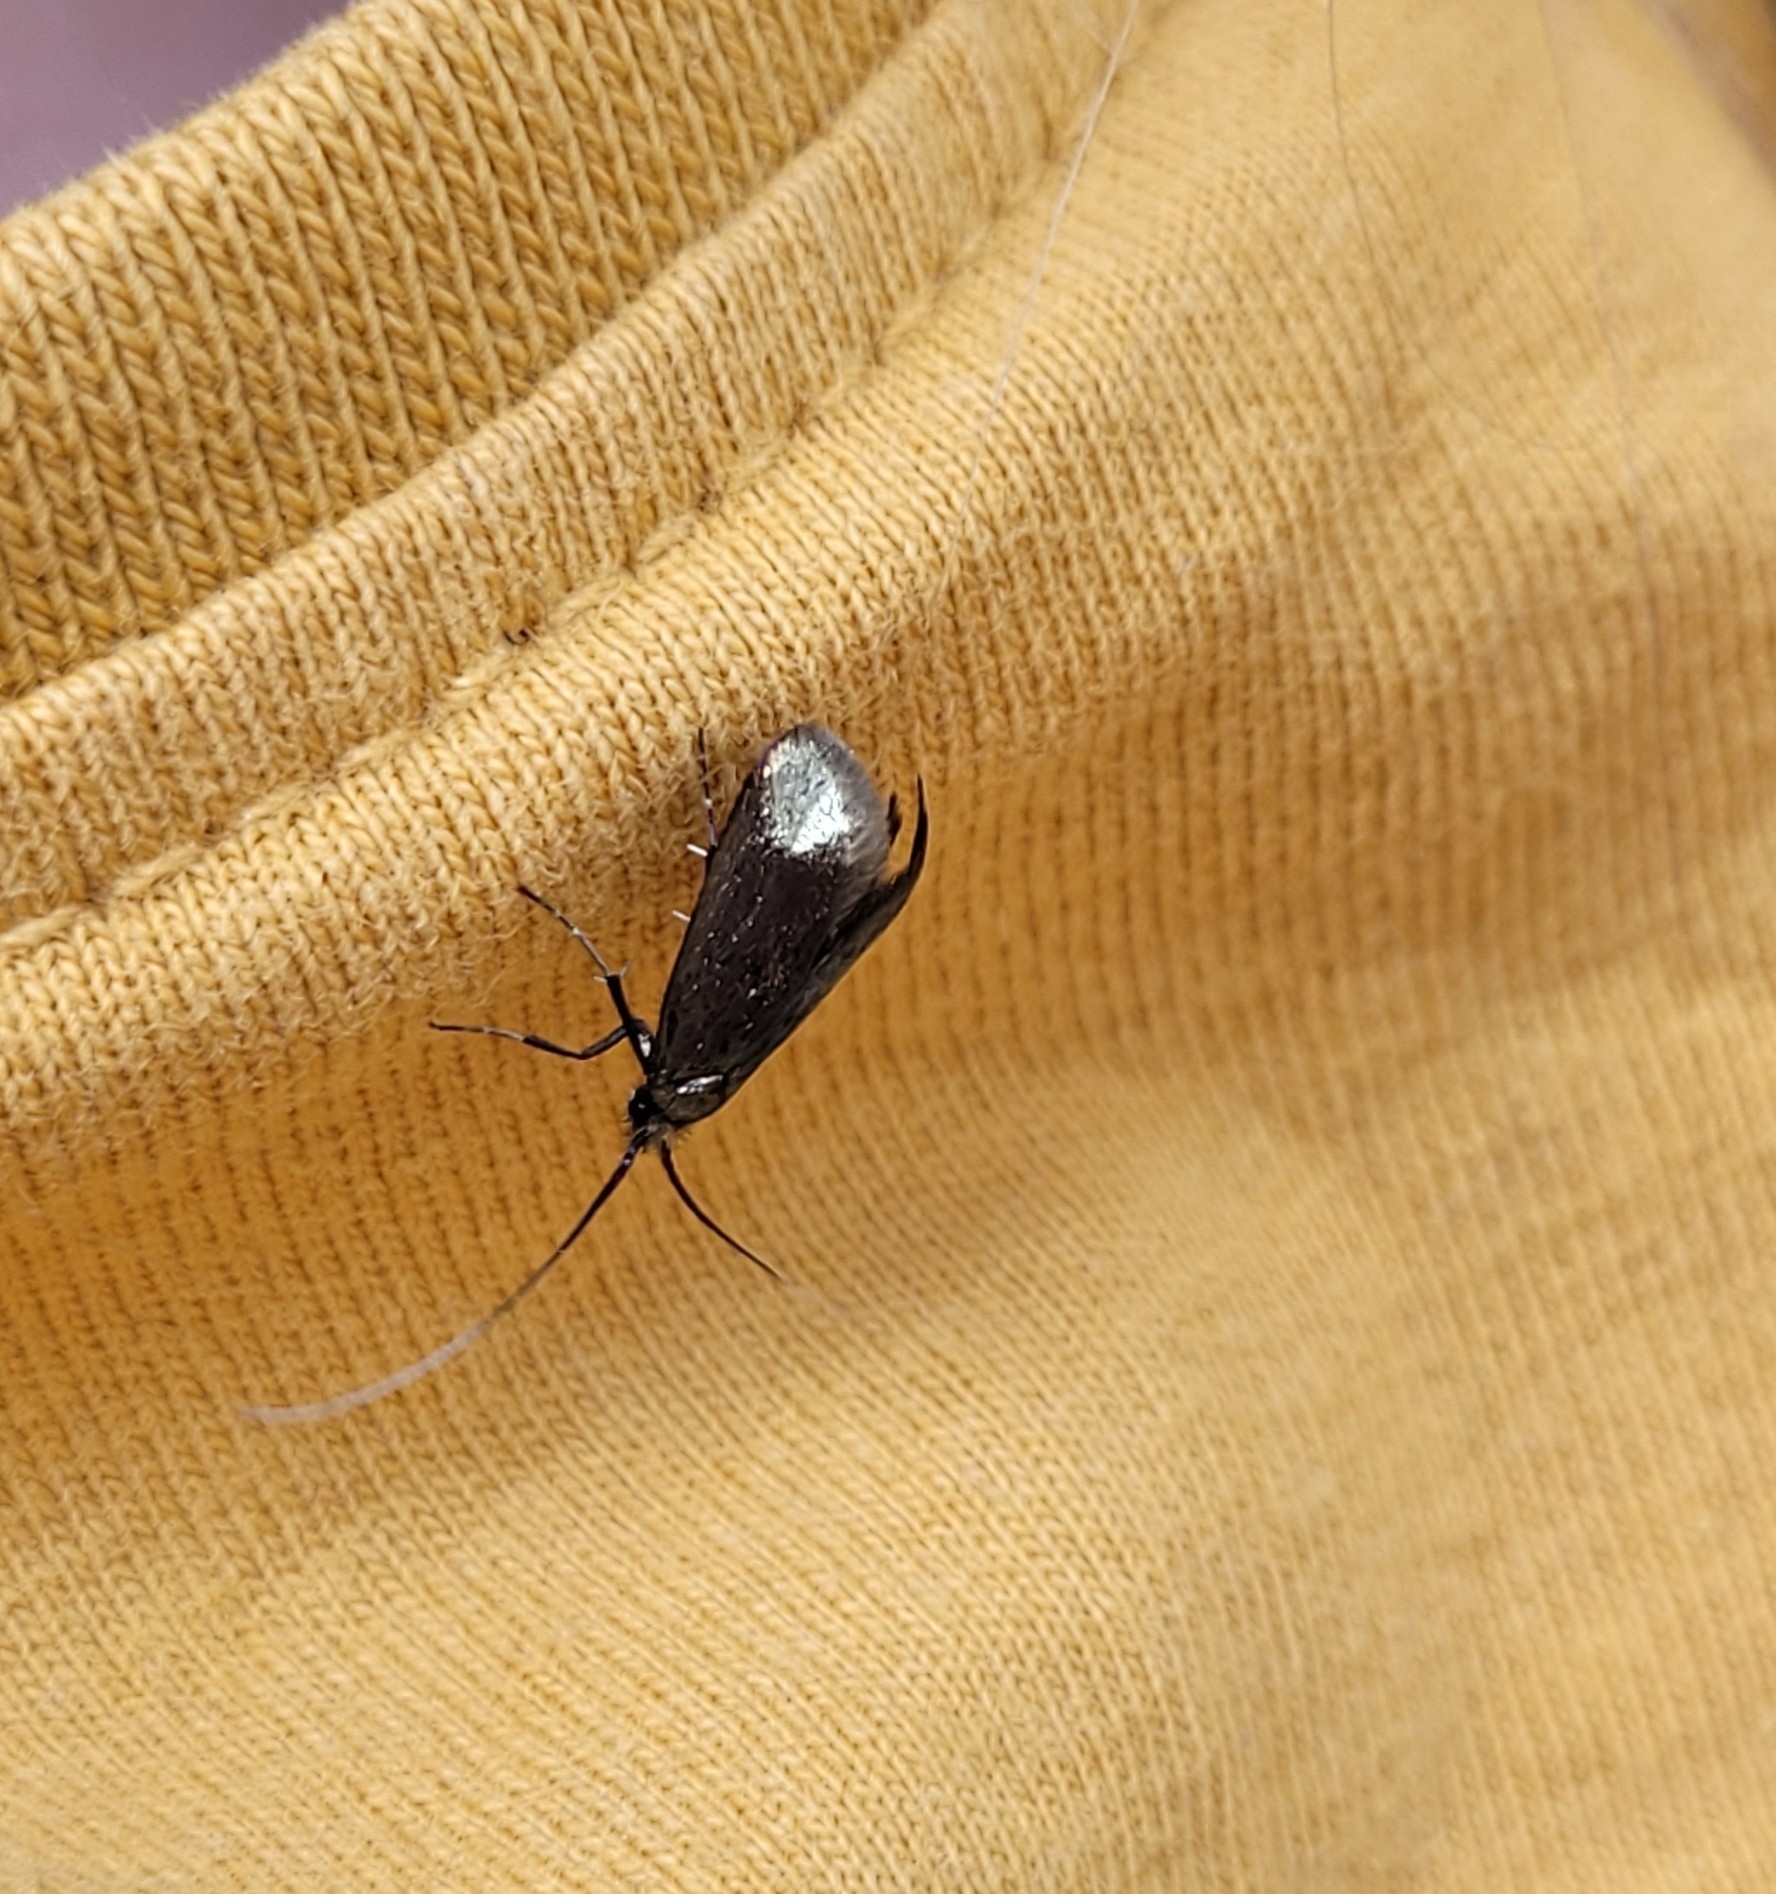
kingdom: Animalia
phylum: Arthropoda
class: Insecta
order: Lepidoptera
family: Adelidae
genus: Adela
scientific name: Adela viridella
